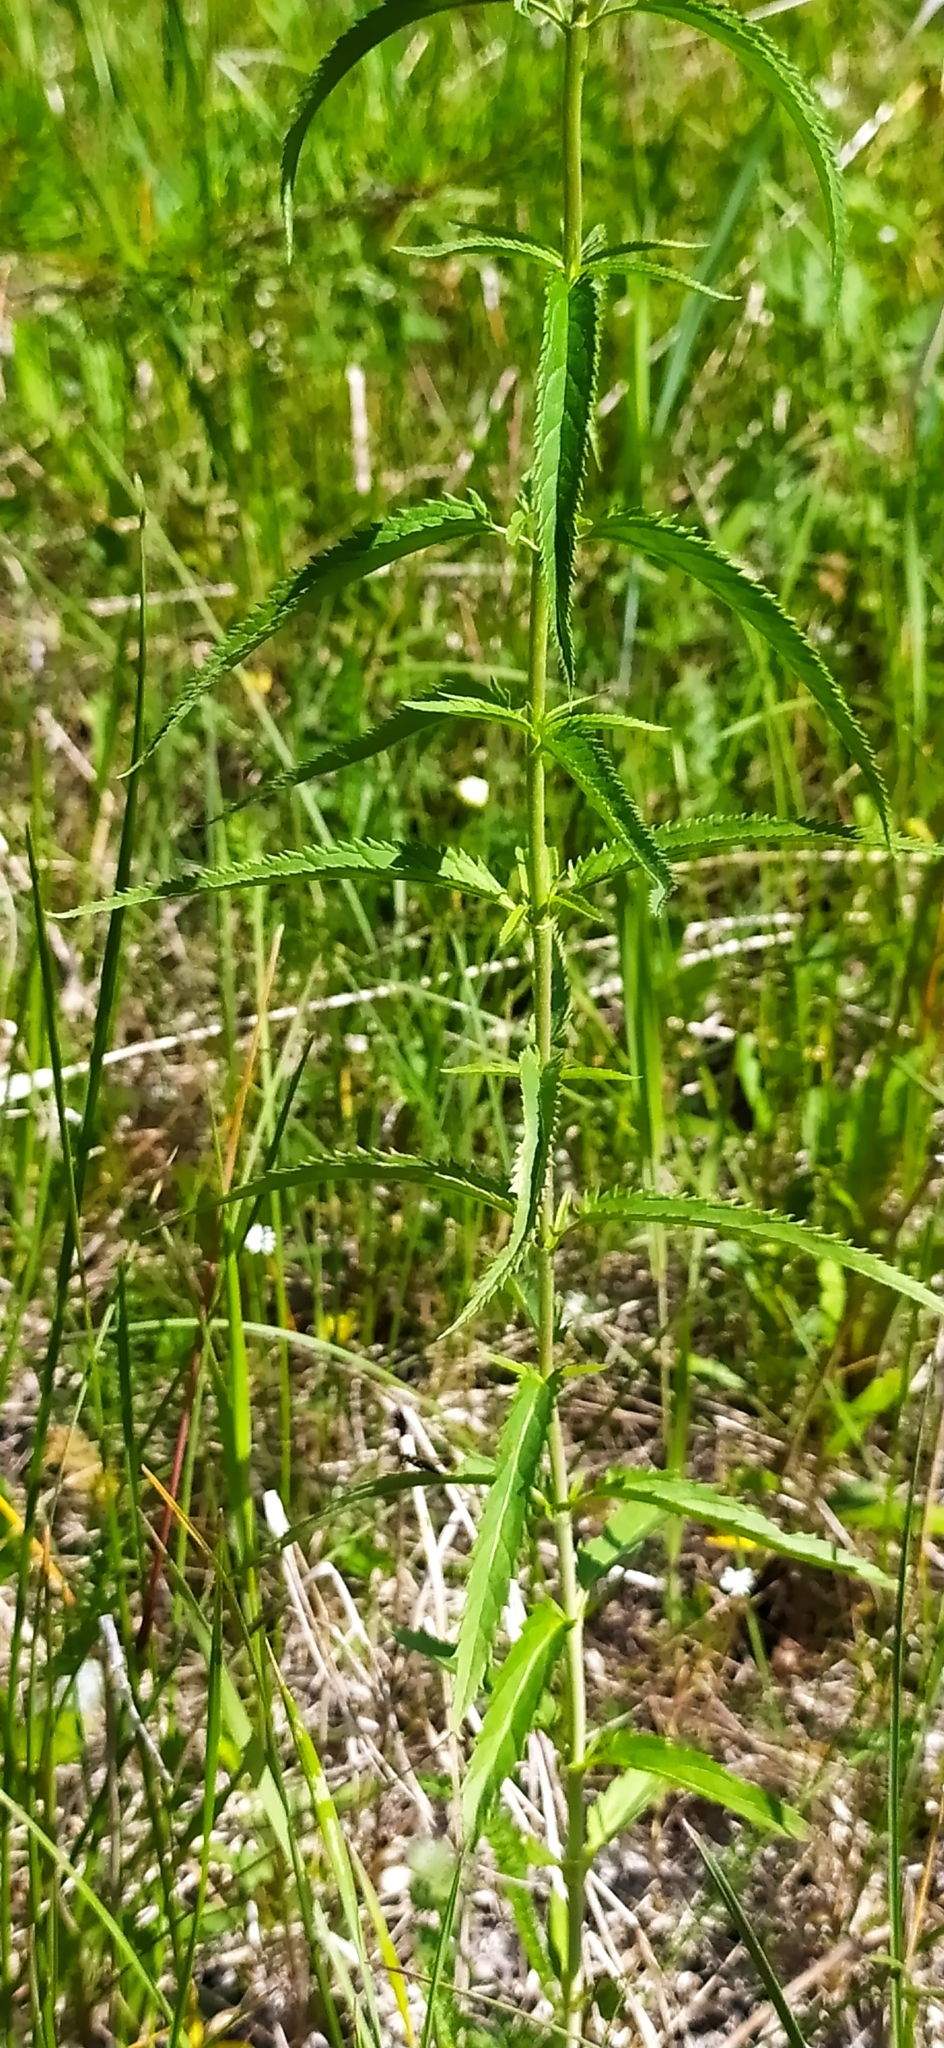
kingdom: Plantae
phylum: Tracheophyta
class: Magnoliopsida
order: Lamiales
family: Plantaginaceae
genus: Veronica
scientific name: Veronica longifolia
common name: Garden speedwell
